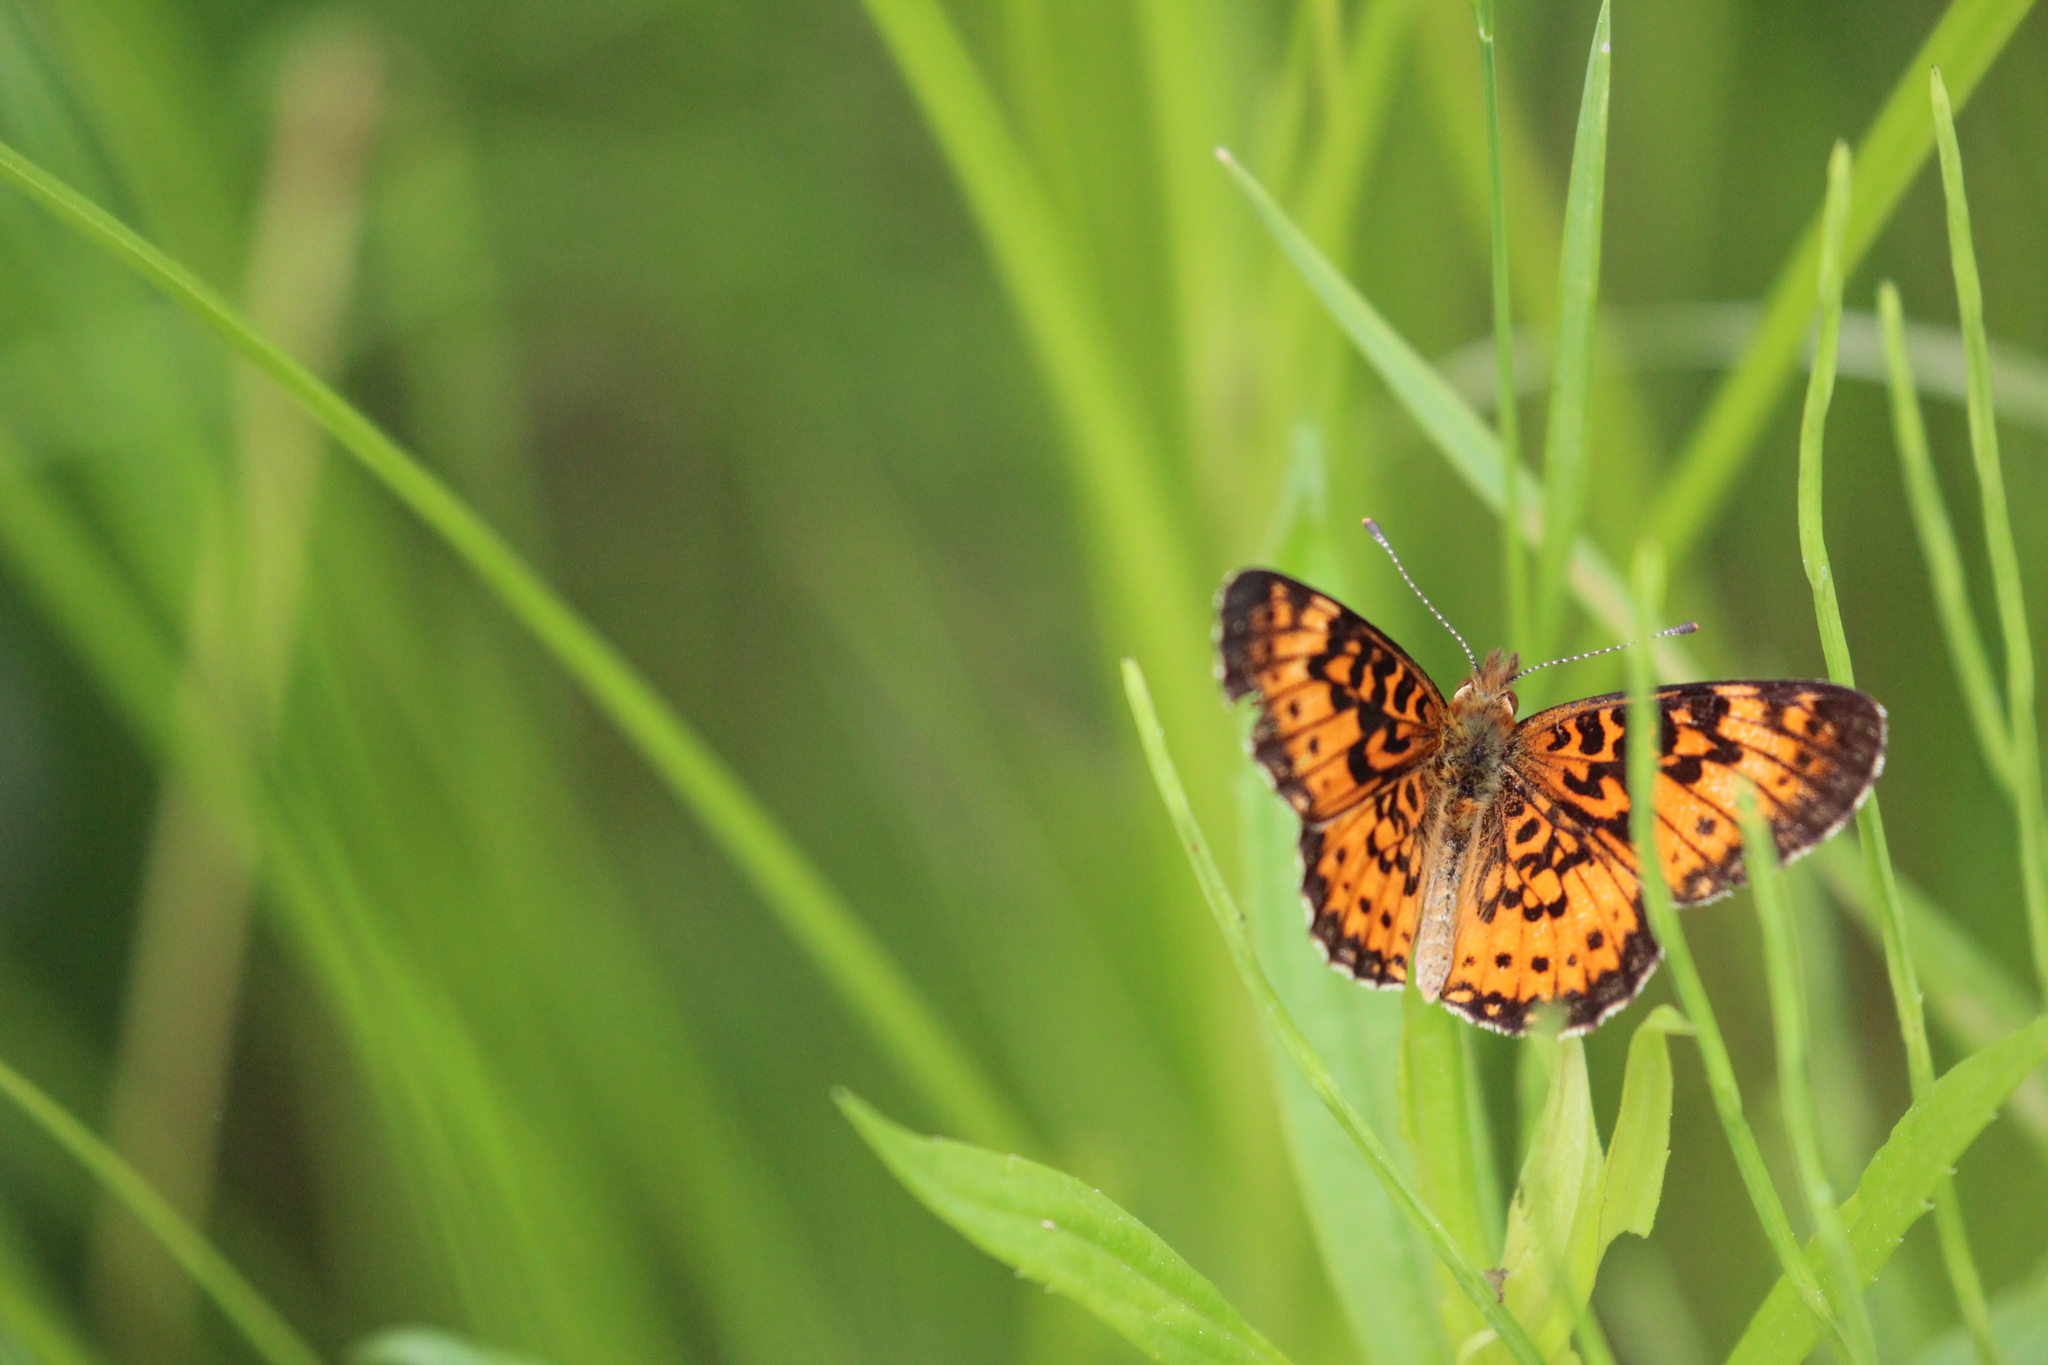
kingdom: Animalia
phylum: Arthropoda
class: Insecta
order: Lepidoptera
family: Nymphalidae
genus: Boloria
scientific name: Boloria
